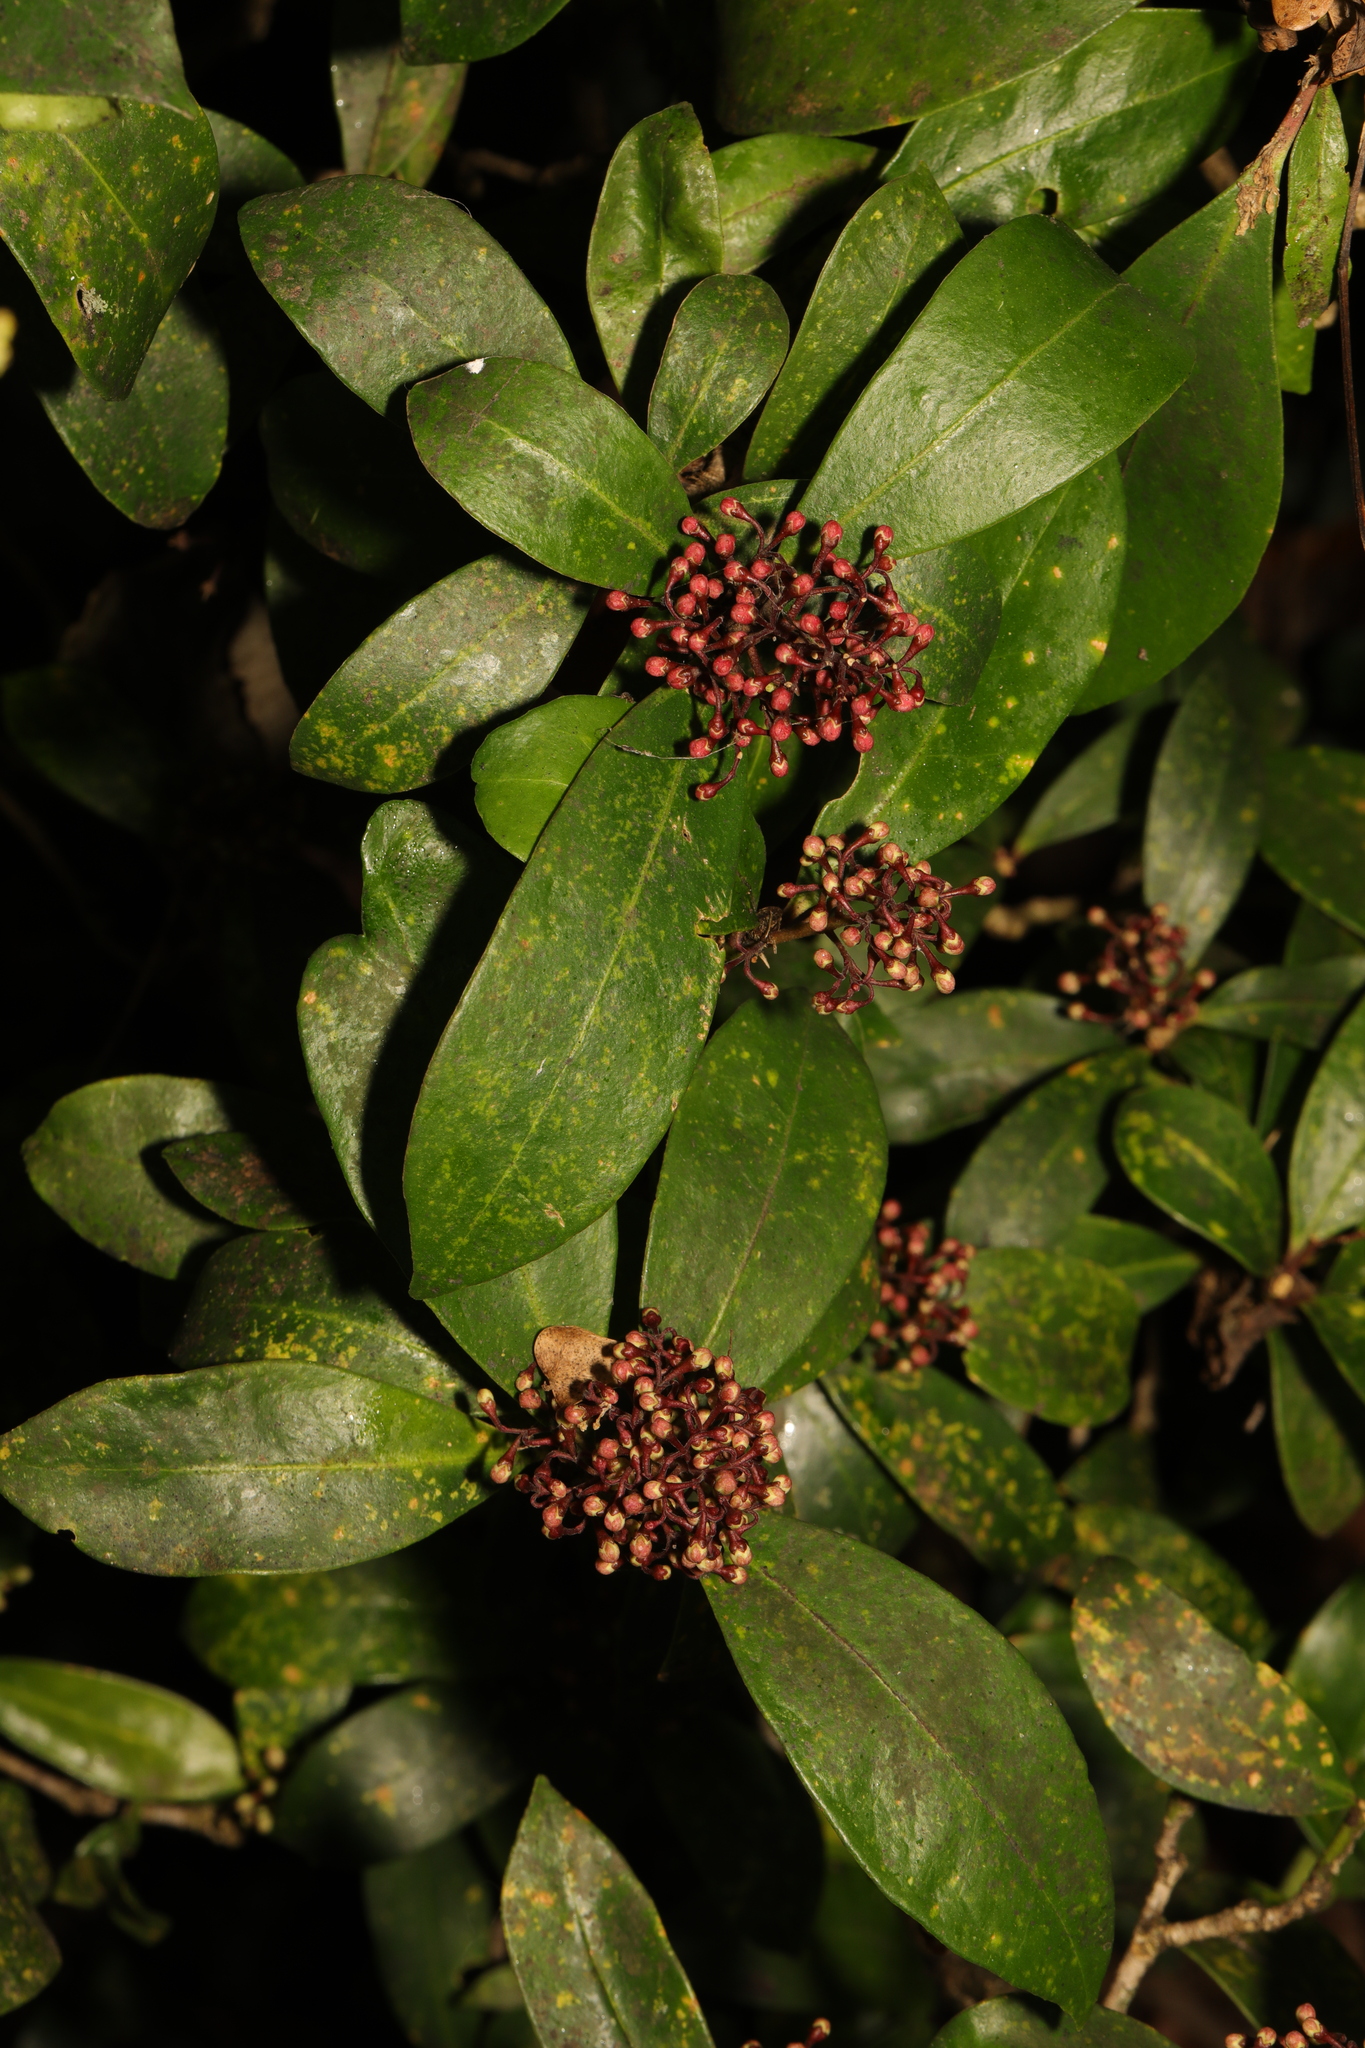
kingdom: Plantae
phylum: Tracheophyta
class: Magnoliopsida
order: Sapindales
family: Rutaceae
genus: Skimmia
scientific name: Skimmia japonica
